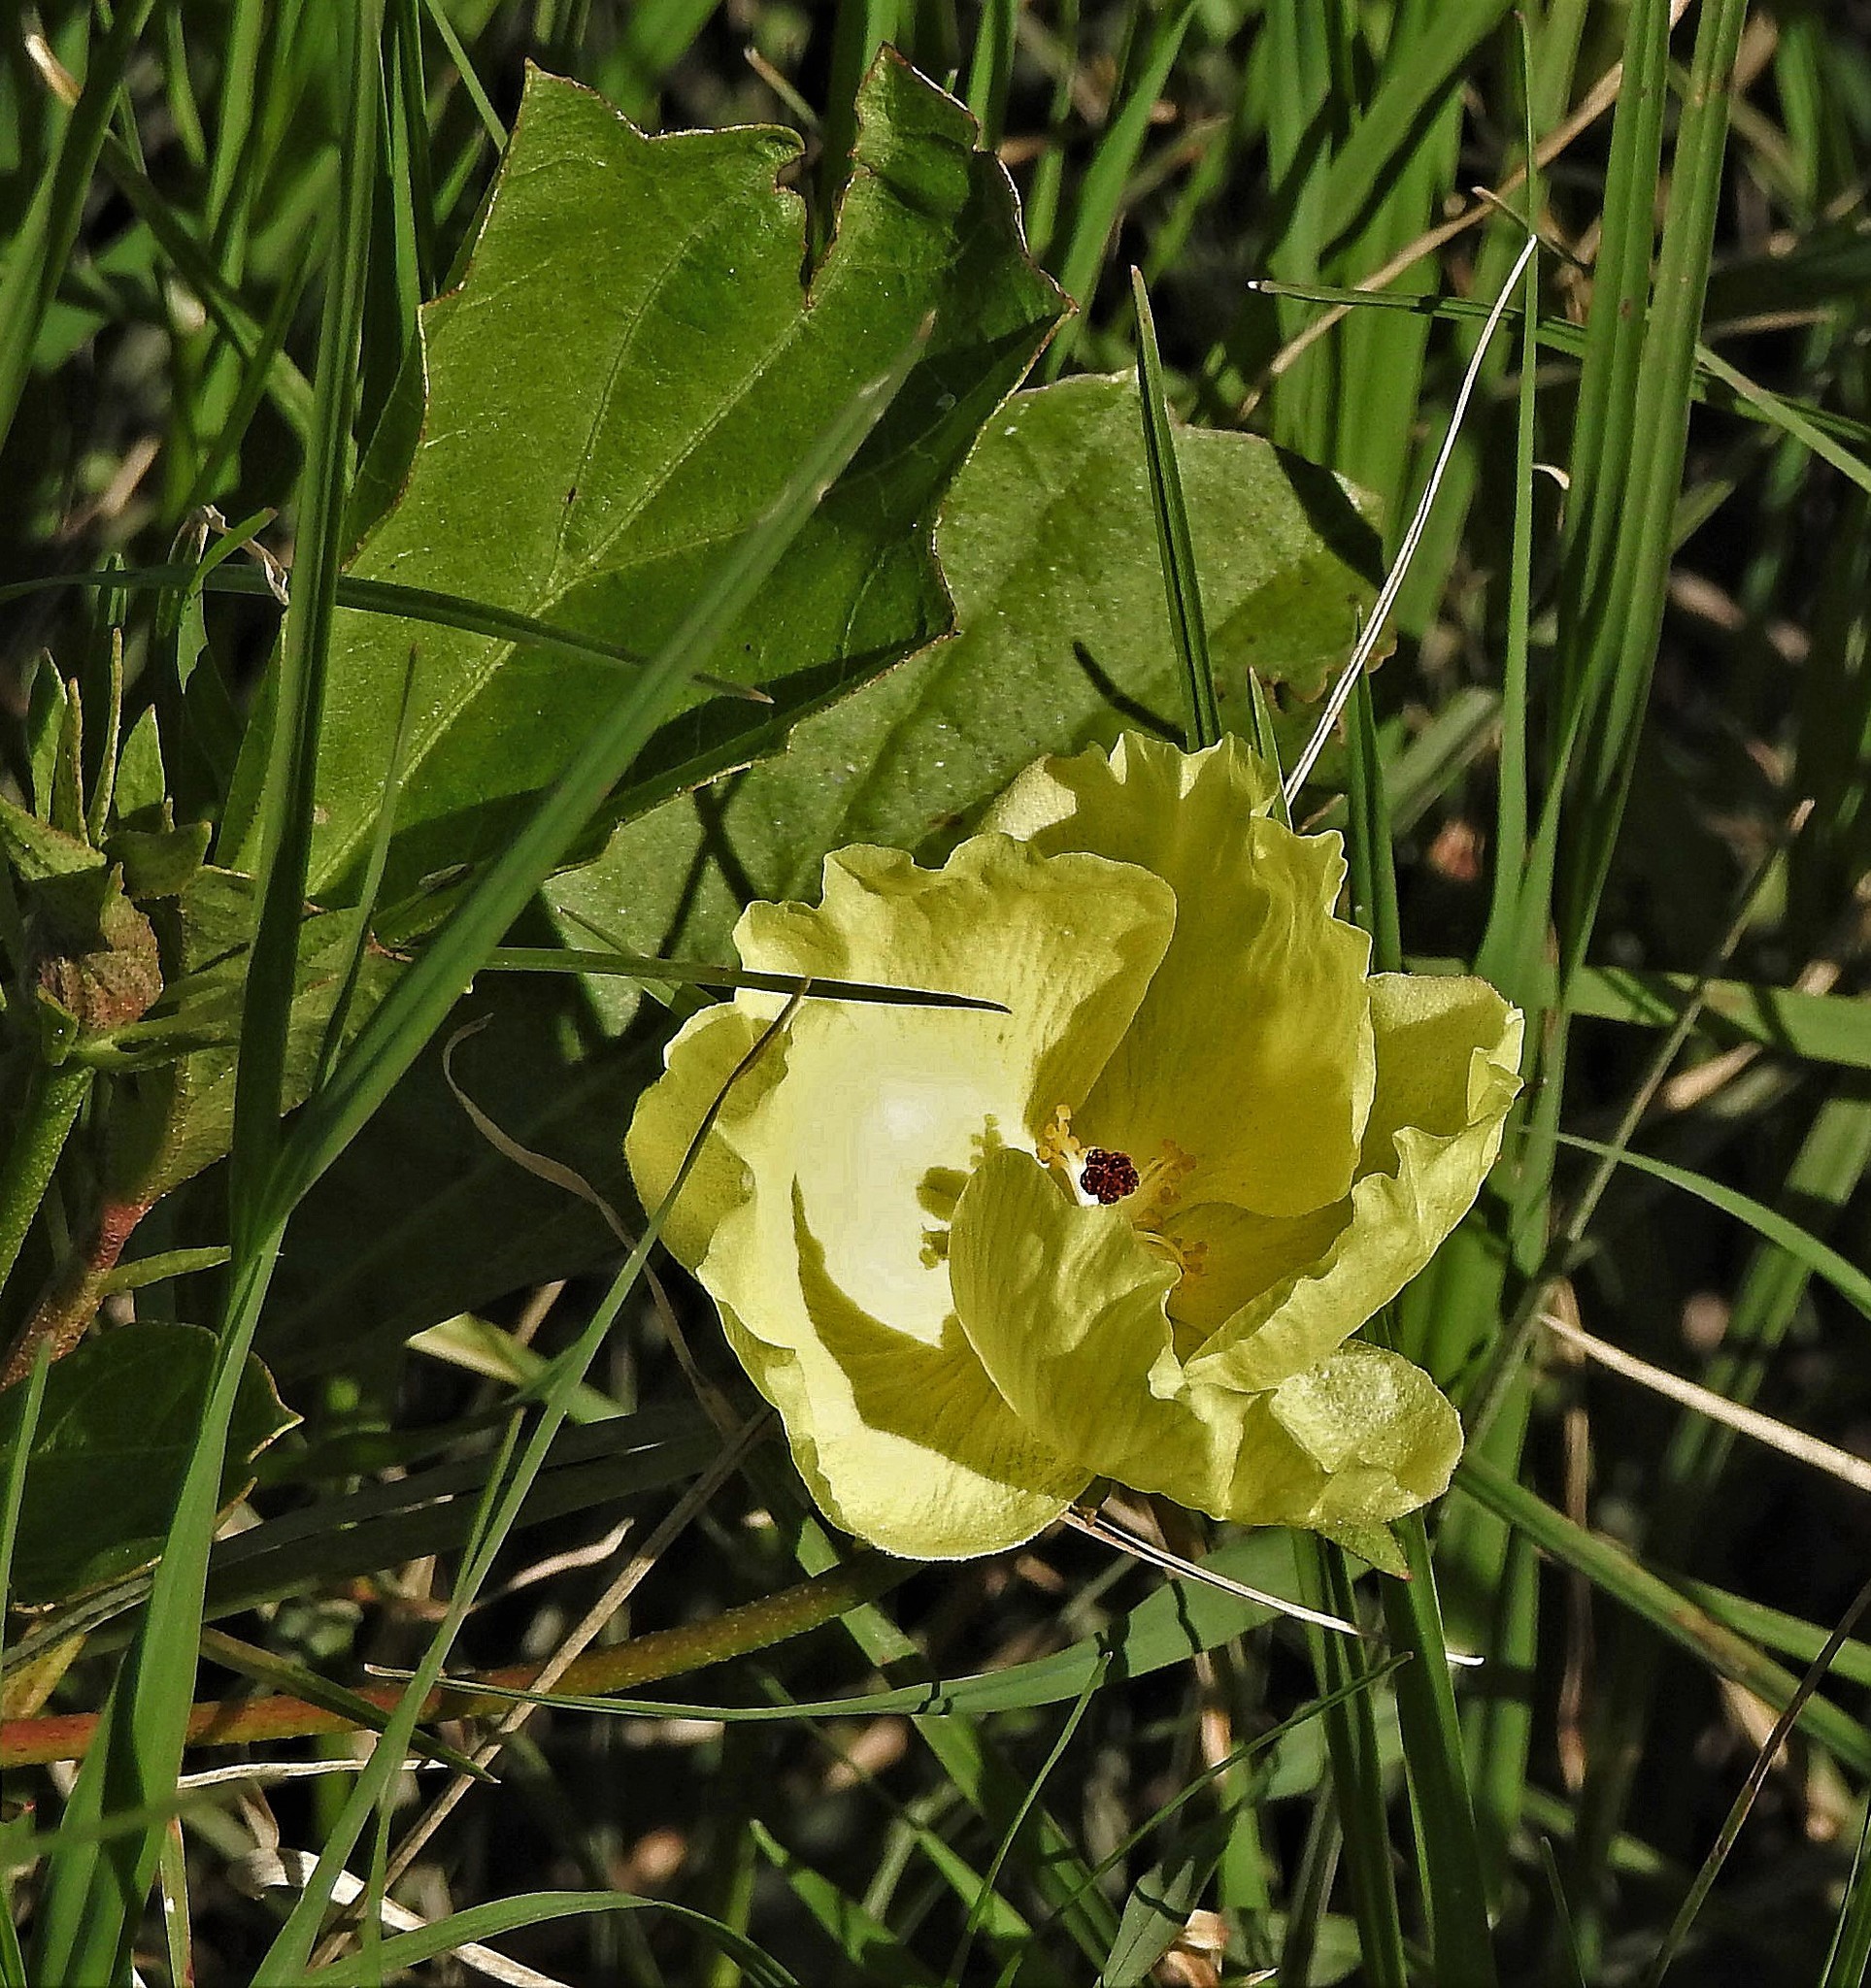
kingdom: Plantae
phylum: Tracheophyta
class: Magnoliopsida
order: Malvales
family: Malvaceae
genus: Cienfuegosia
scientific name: Cienfuegosia drummondii
